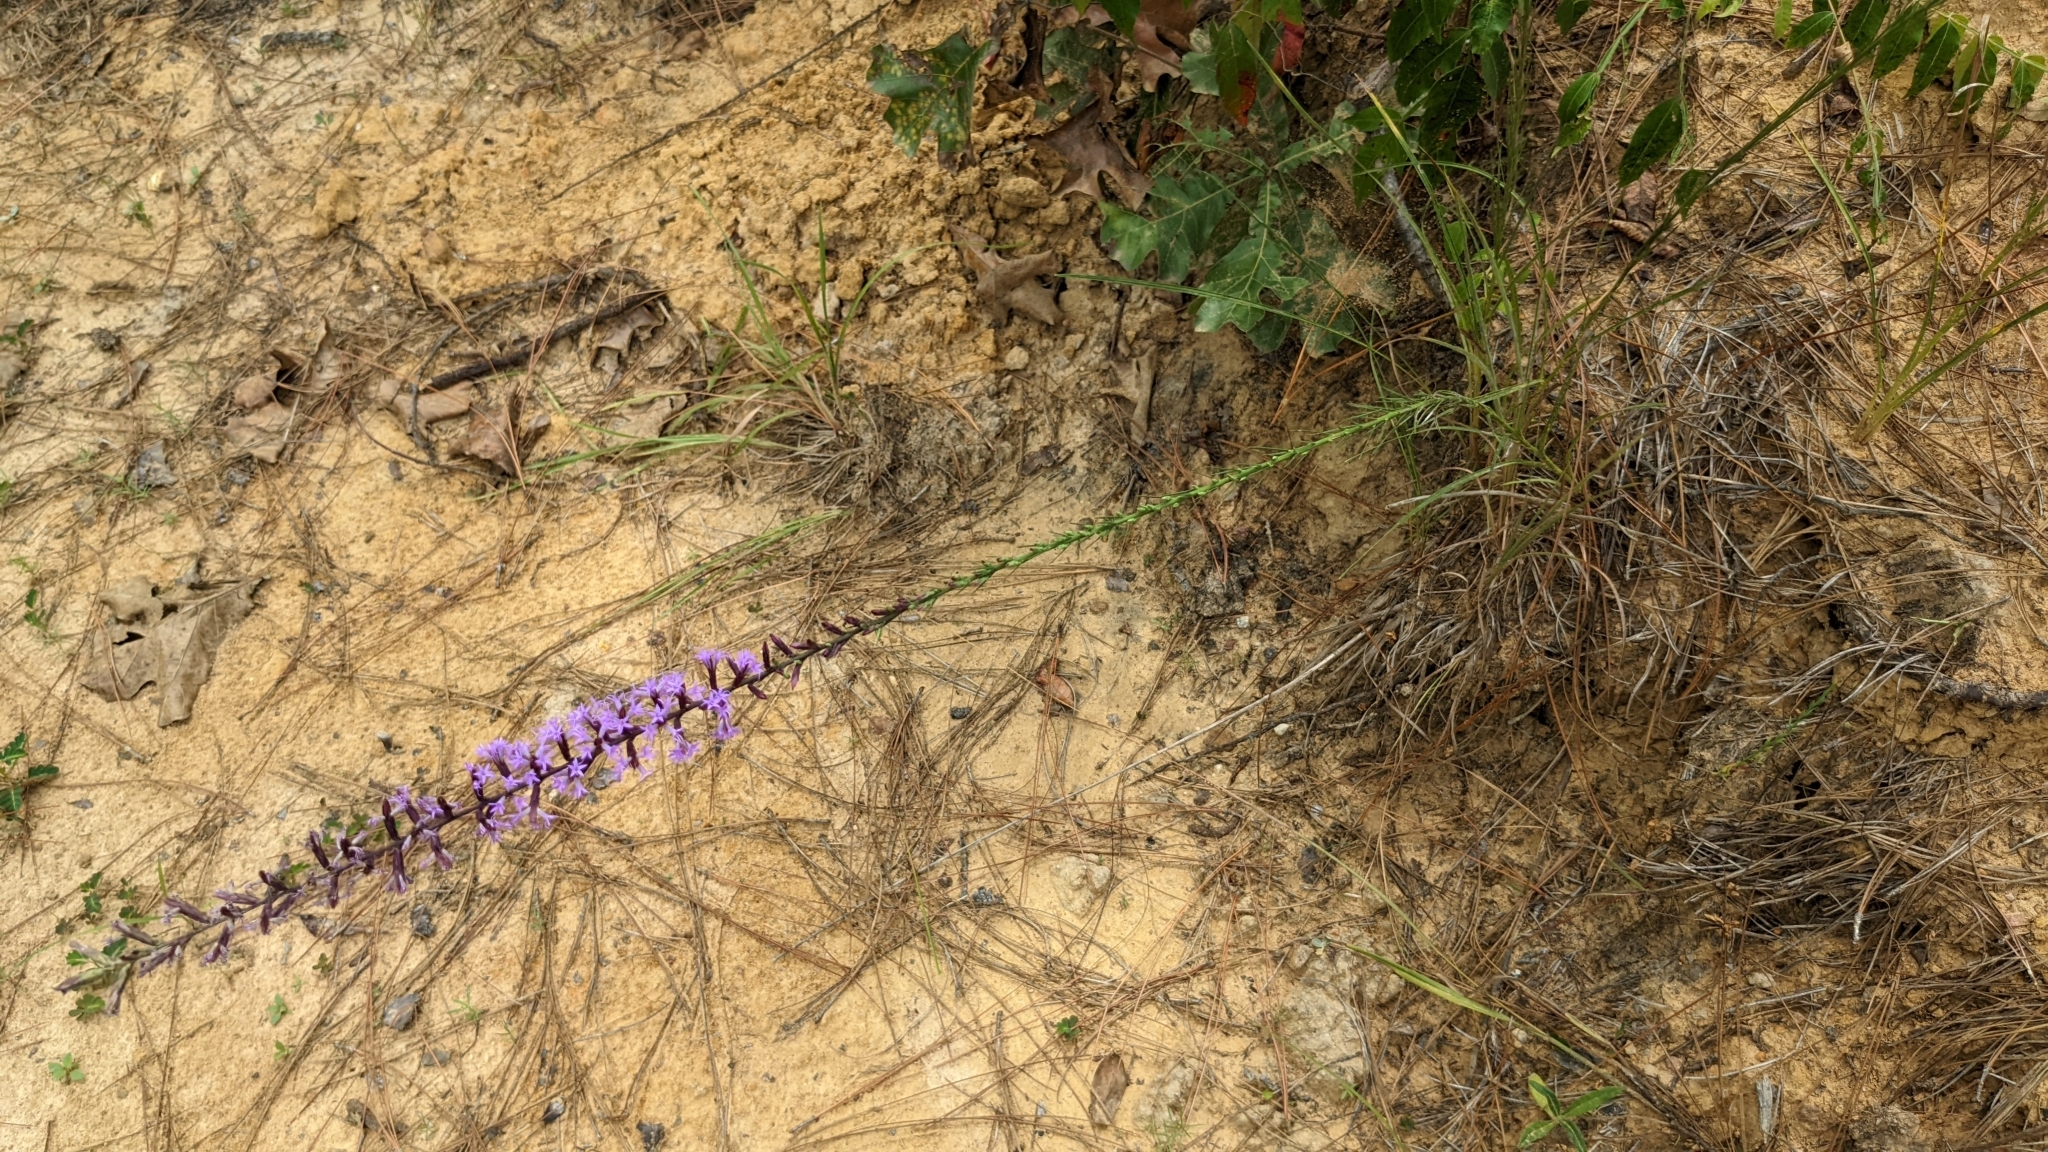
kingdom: Plantae
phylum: Tracheophyta
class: Magnoliopsida
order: Asterales
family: Asteraceae
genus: Liatris
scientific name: Liatris acidota
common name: Gulf coast gayfeather
